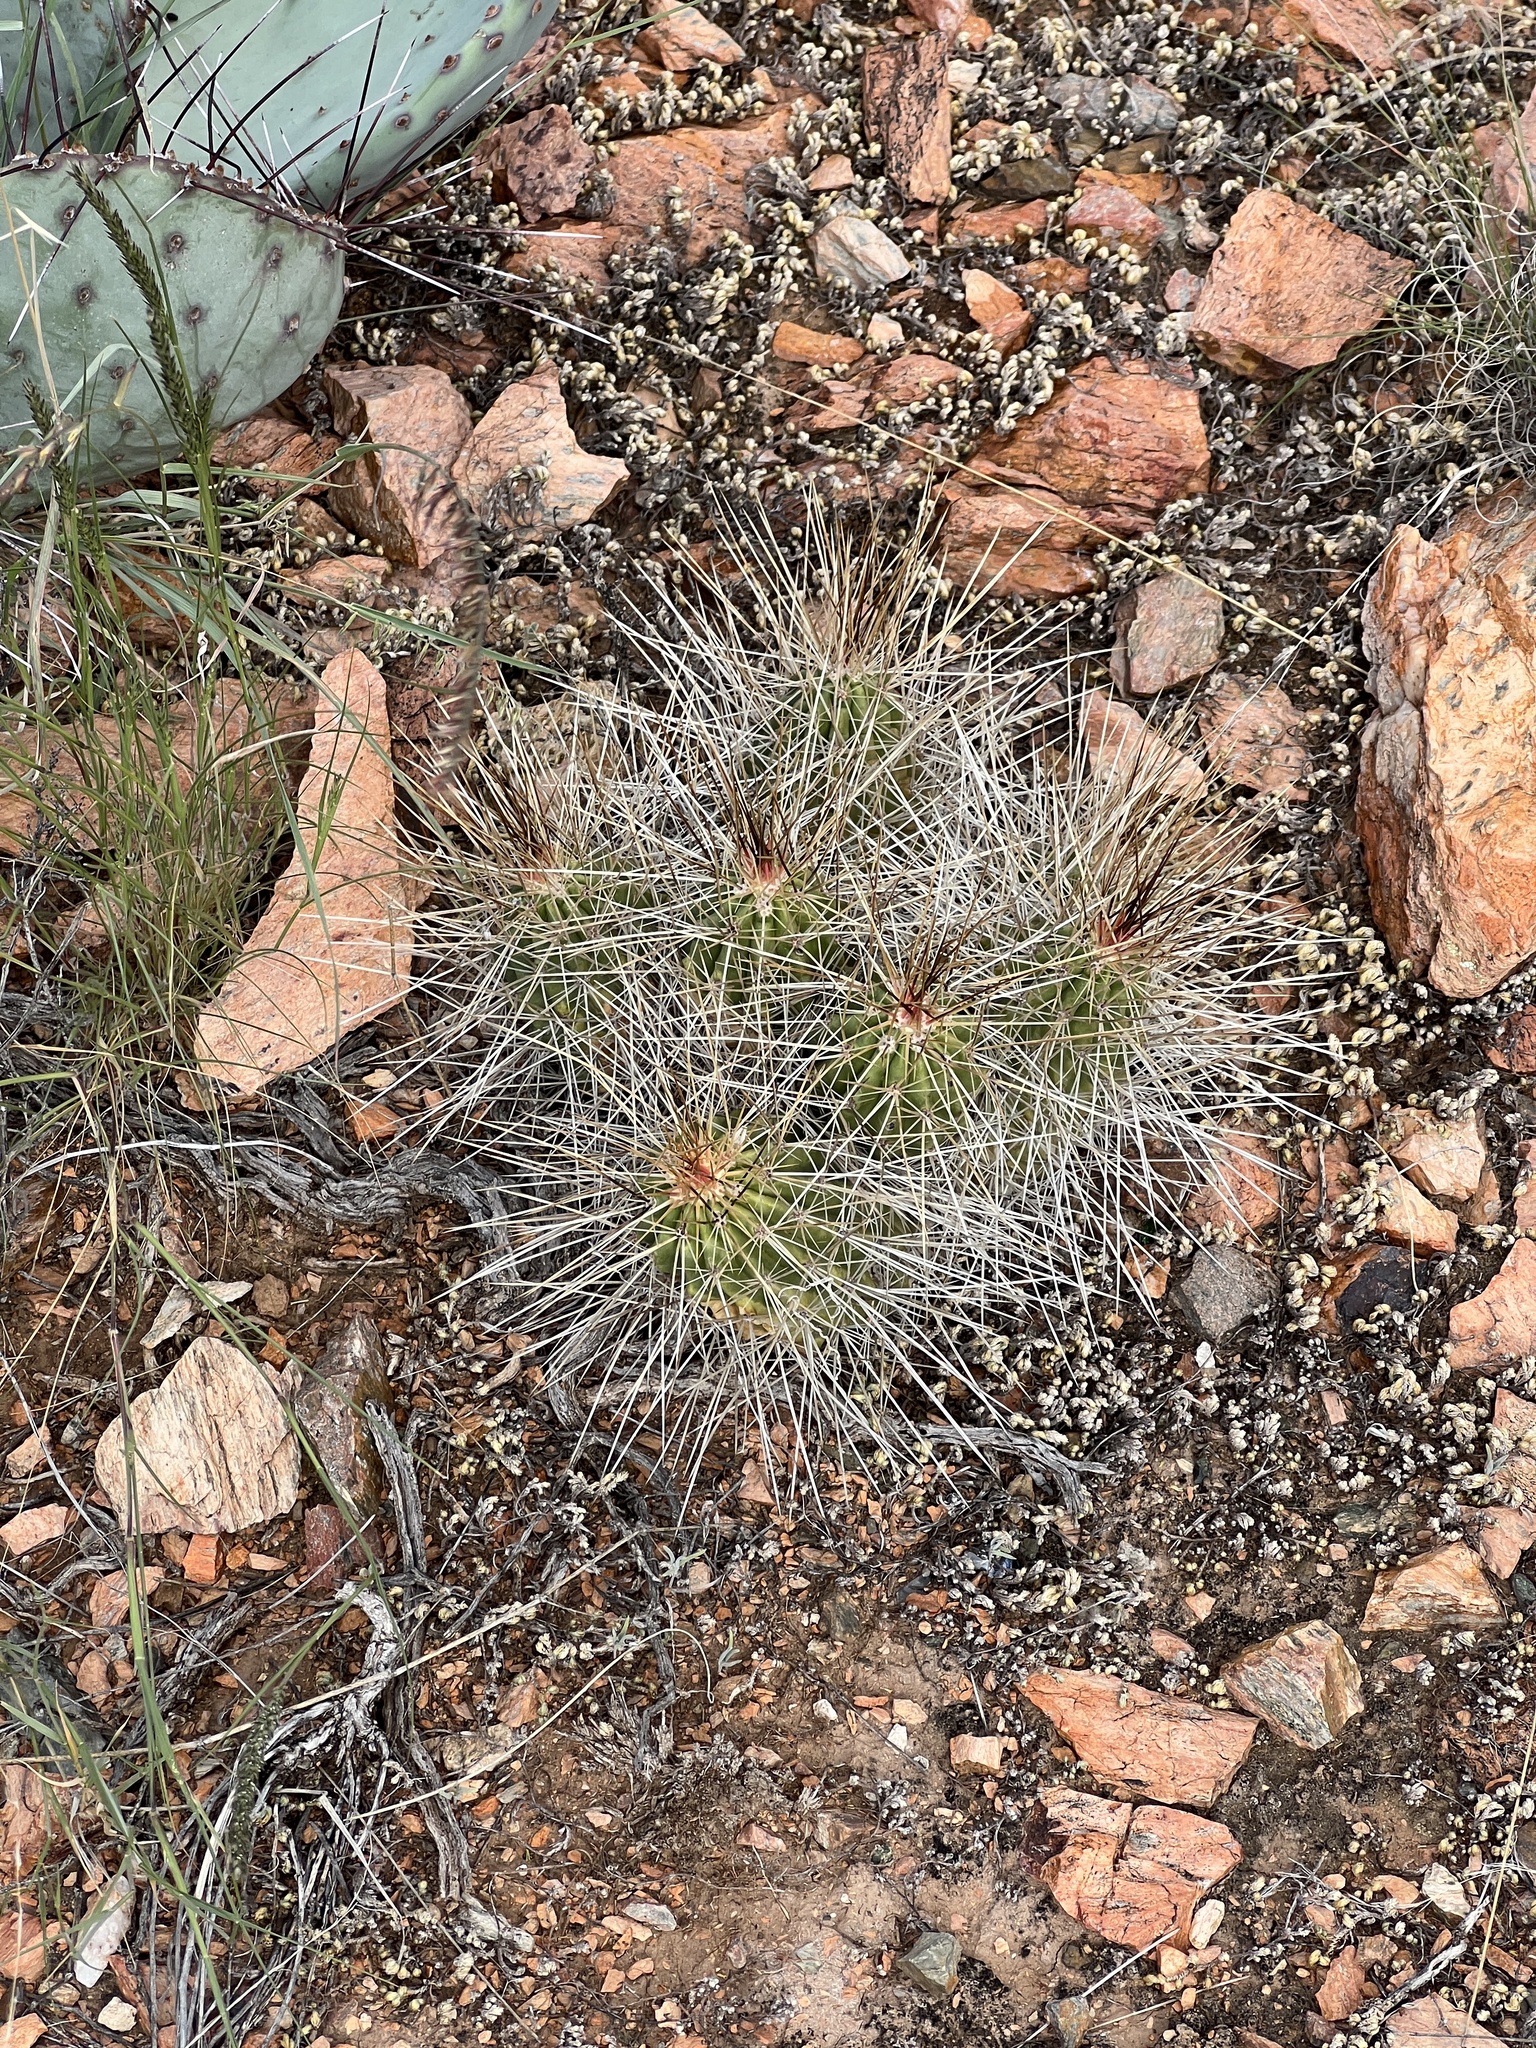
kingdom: Plantae
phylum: Tracheophyta
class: Magnoliopsida
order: Caryophyllales
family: Cactaceae
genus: Echinocereus
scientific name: Echinocereus stramineus
